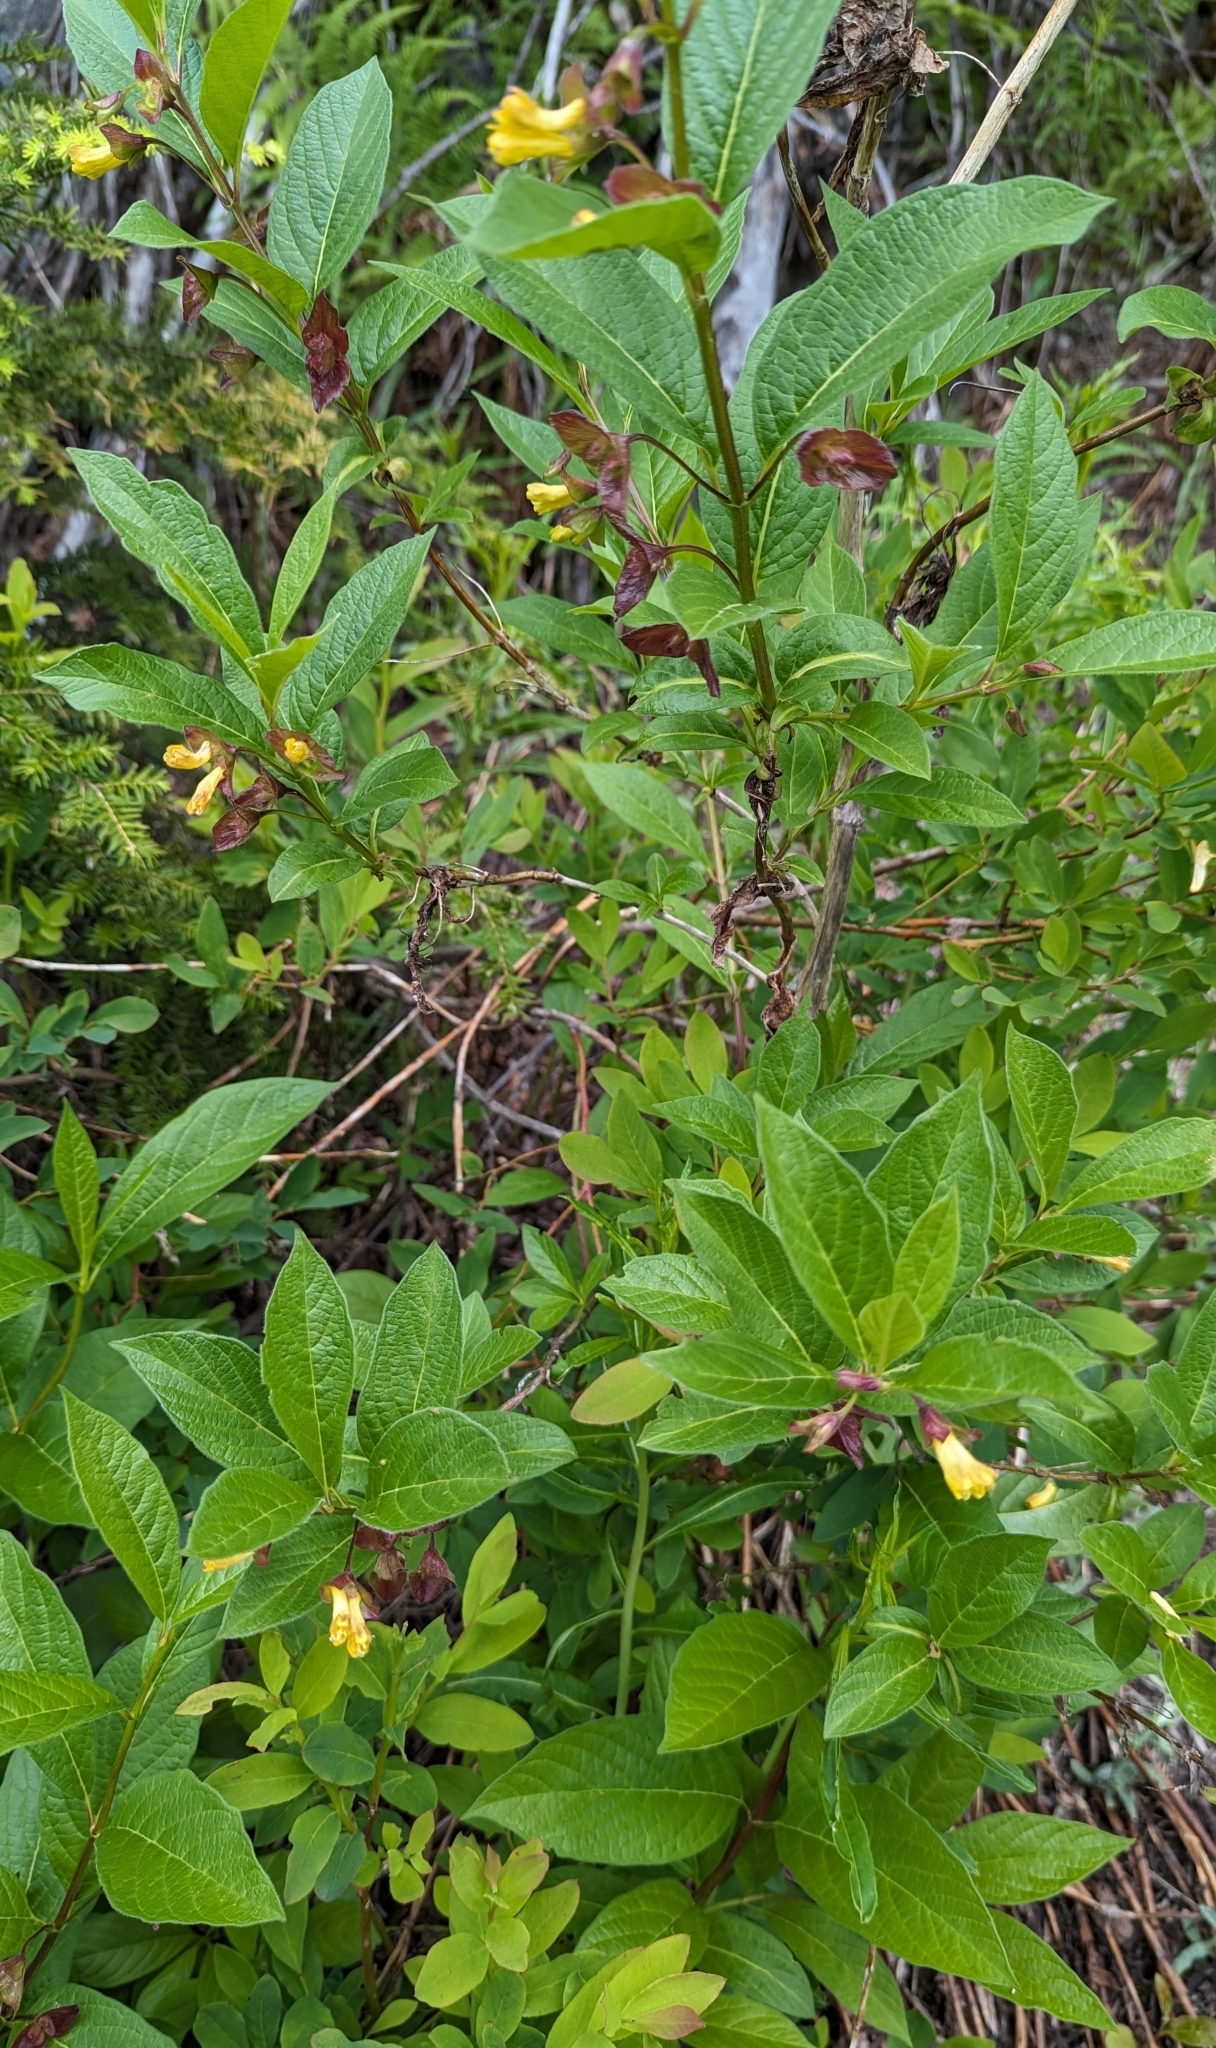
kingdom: Plantae
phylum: Tracheophyta
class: Magnoliopsida
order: Dipsacales
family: Caprifoliaceae
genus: Lonicera
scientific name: Lonicera involucrata
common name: Californian honeysuckle
